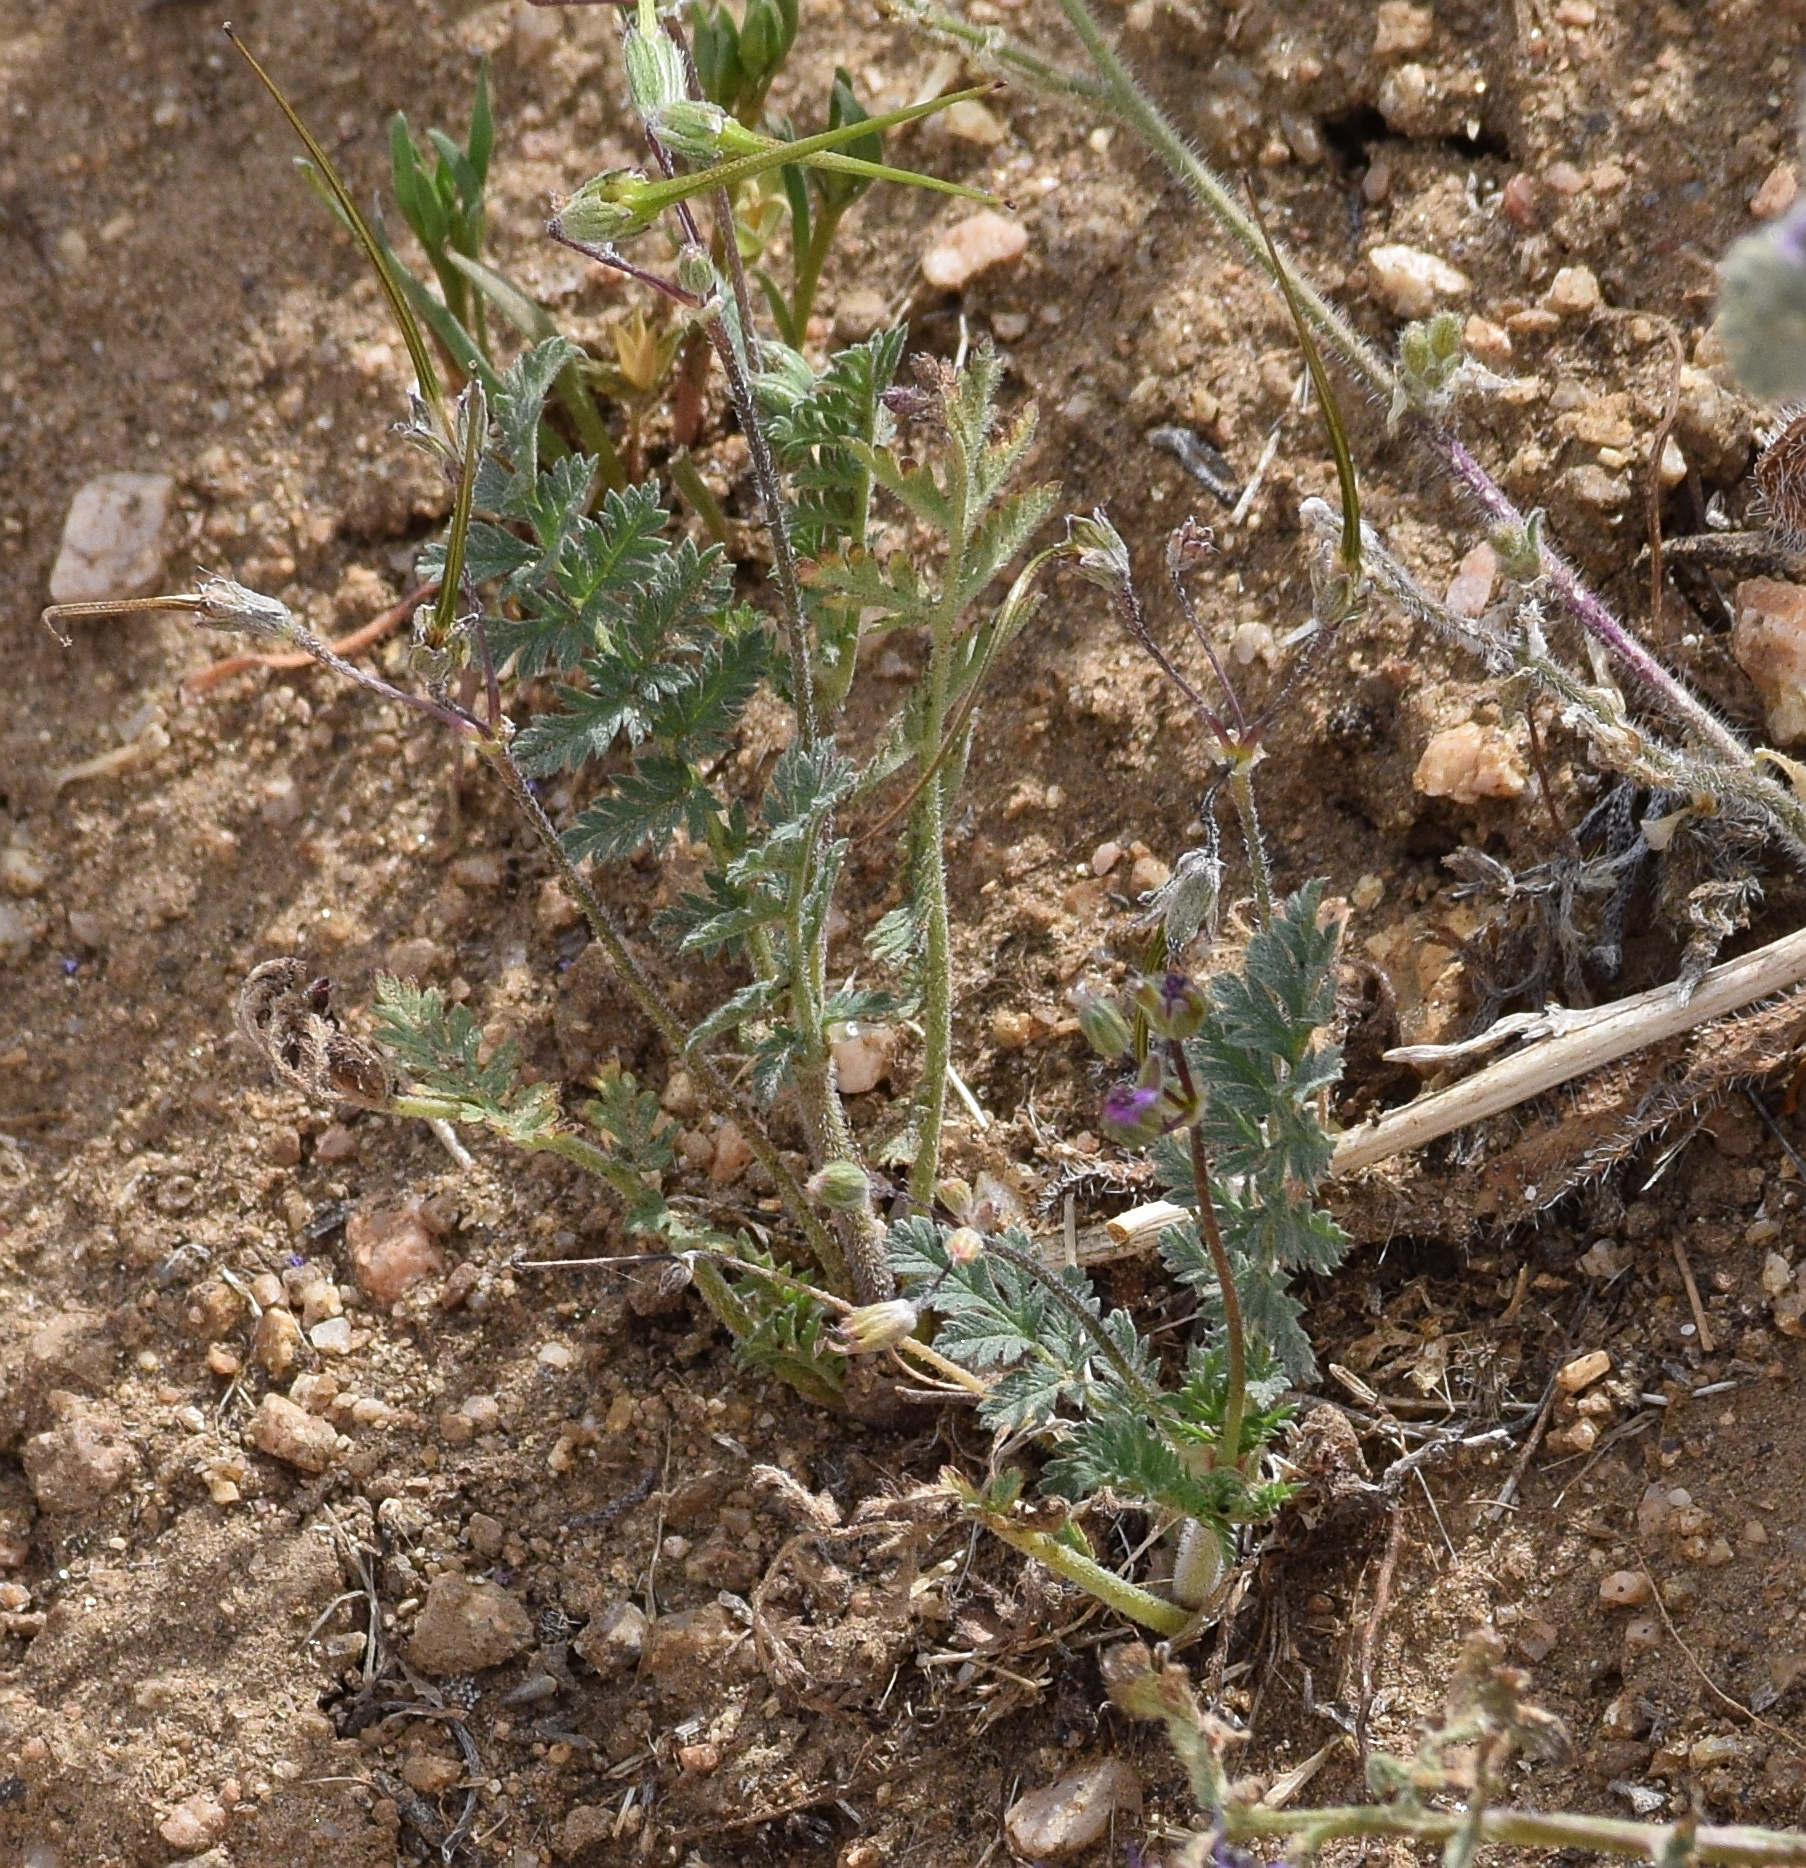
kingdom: Plantae
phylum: Tracheophyta
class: Magnoliopsida
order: Geraniales
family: Geraniaceae
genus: Erodium
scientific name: Erodium cicutarium
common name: Common stork's-bill
